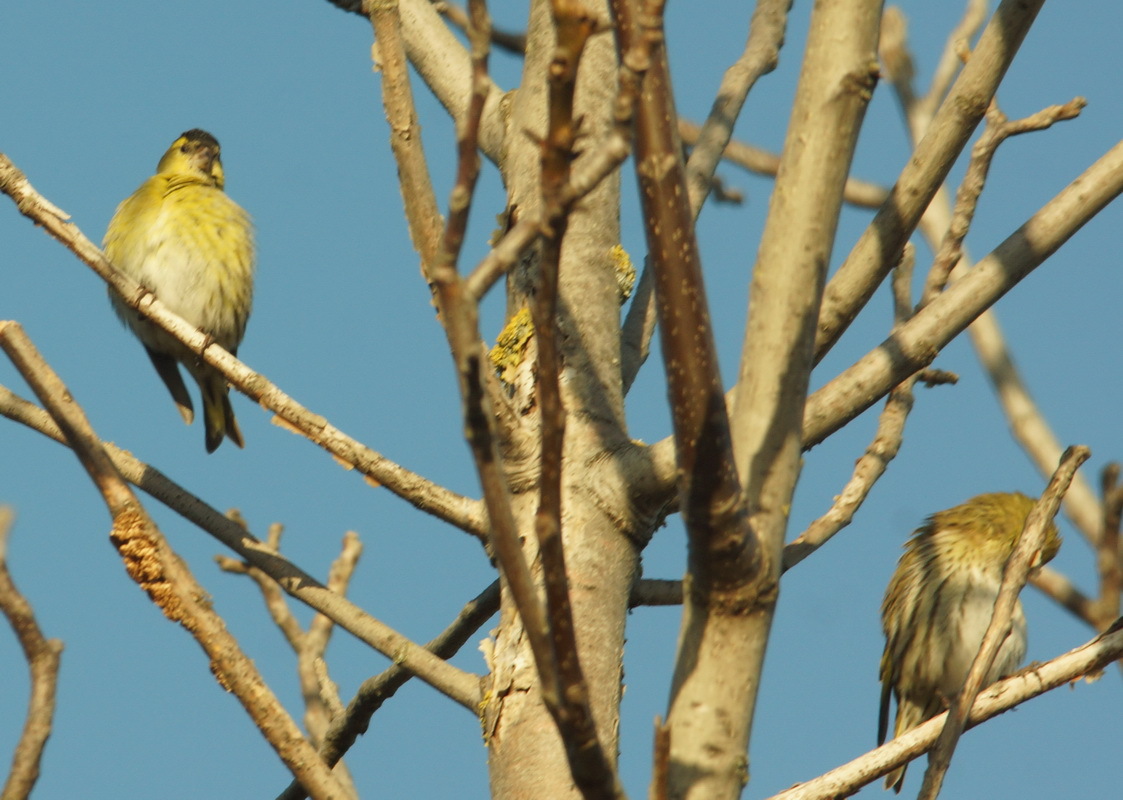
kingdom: Animalia
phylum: Chordata
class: Aves
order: Passeriformes
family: Fringillidae
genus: Spinus
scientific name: Spinus spinus
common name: Eurasian siskin
